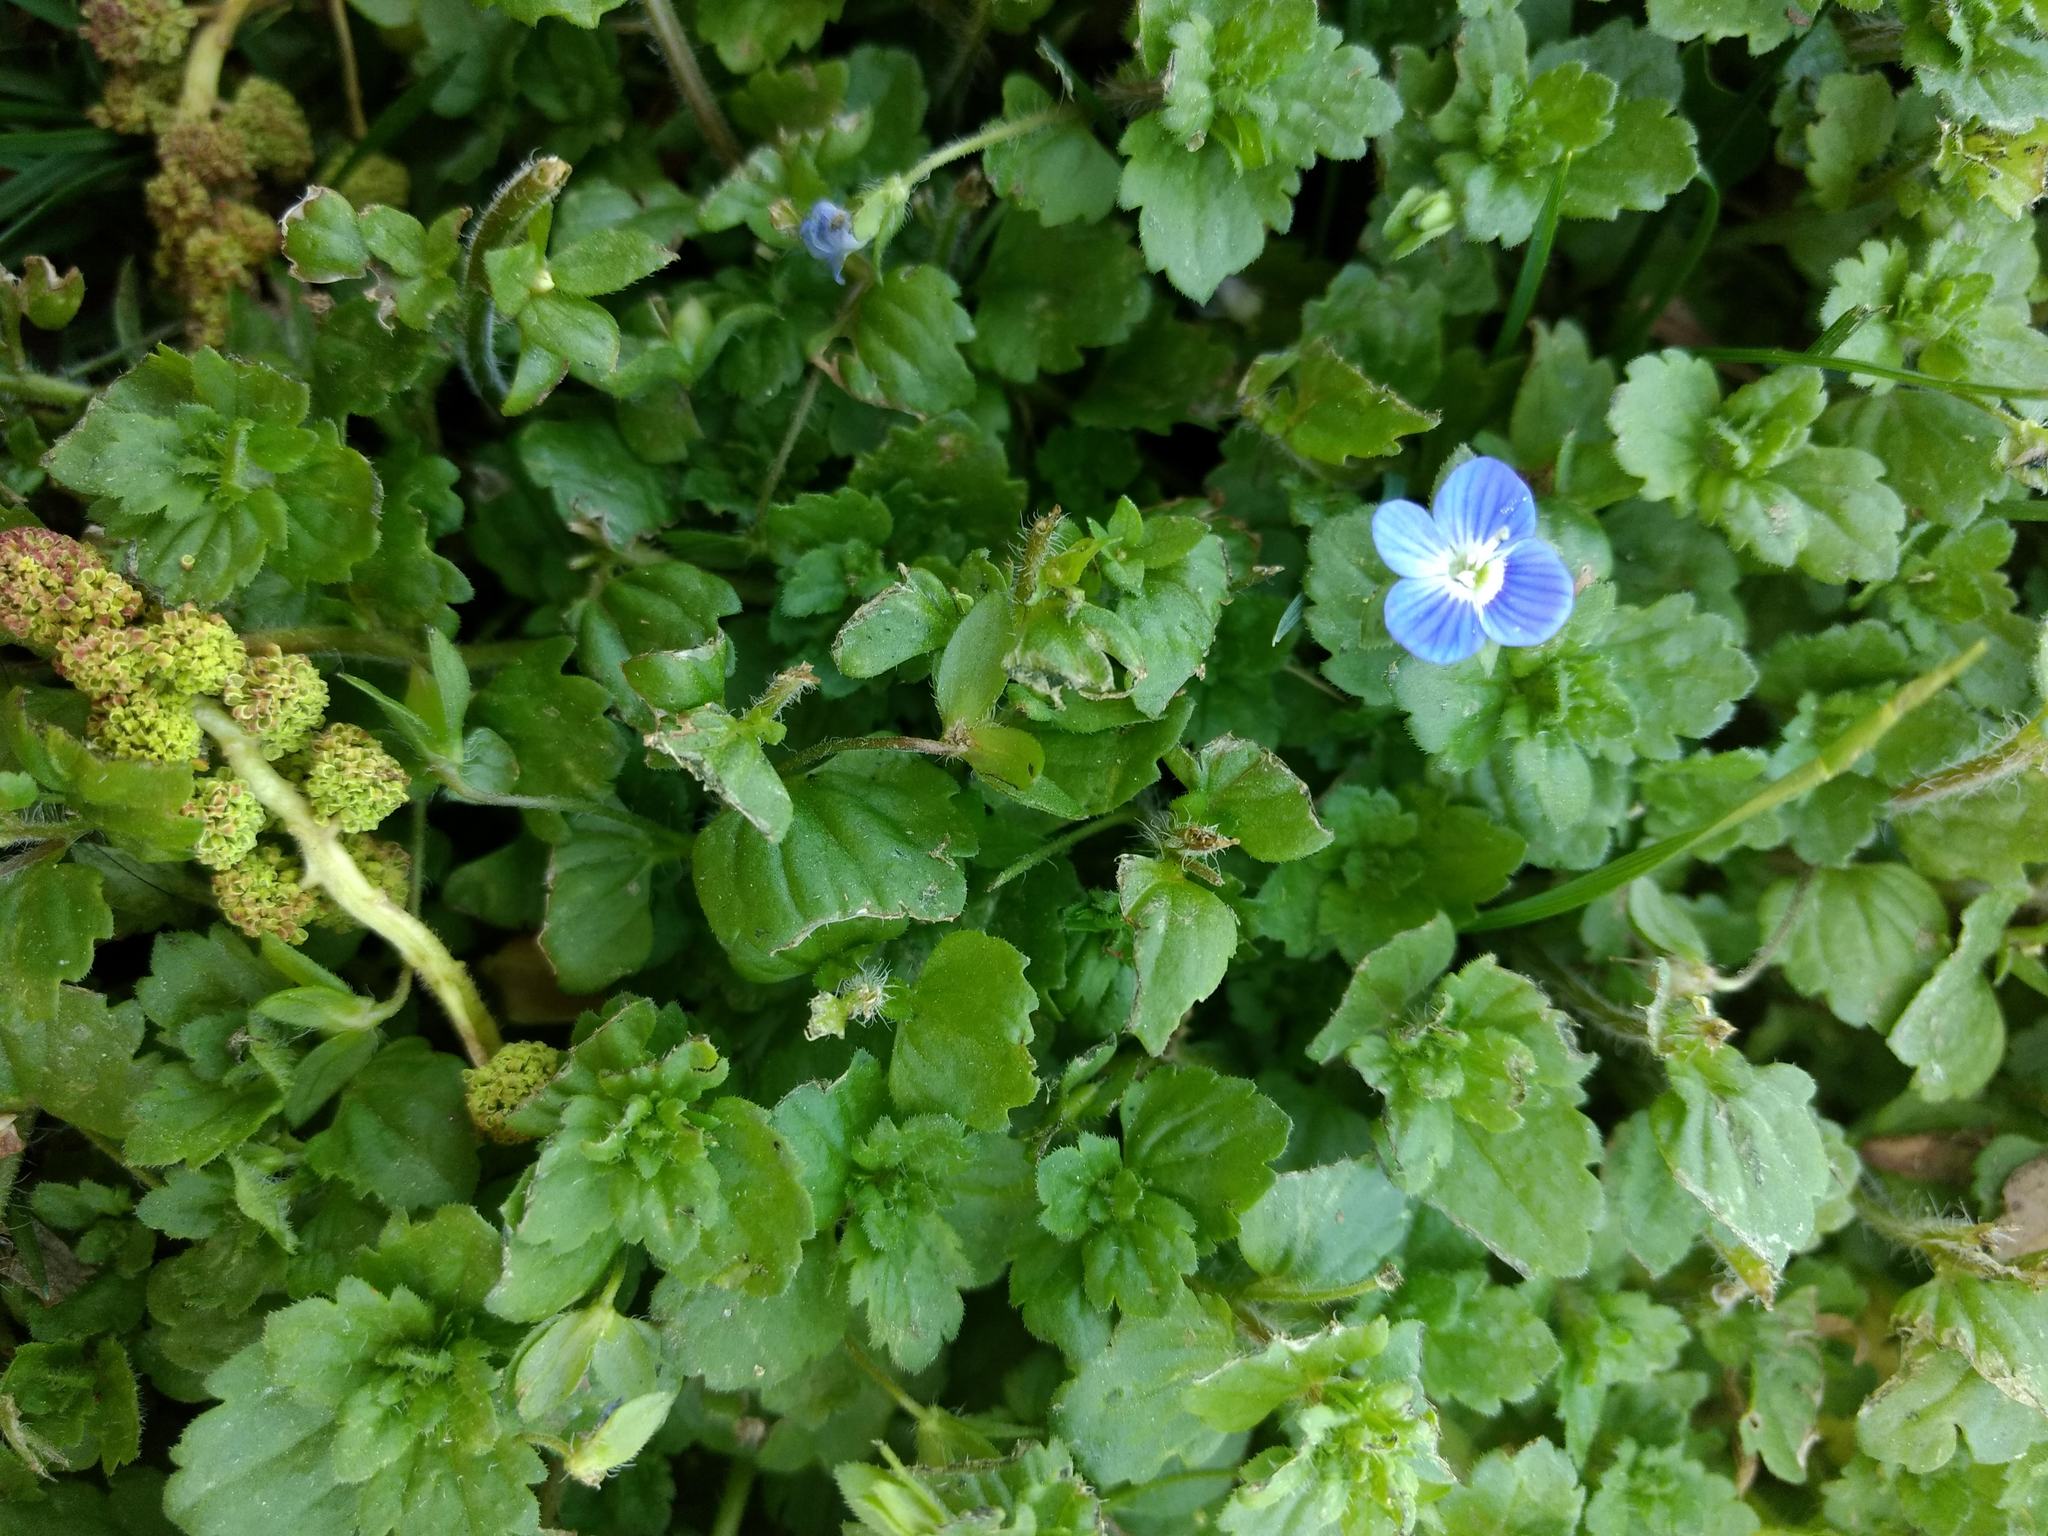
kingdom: Plantae
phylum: Tracheophyta
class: Magnoliopsida
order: Lamiales
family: Plantaginaceae
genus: Veronica
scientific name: Veronica persica
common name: Common field-speedwell
